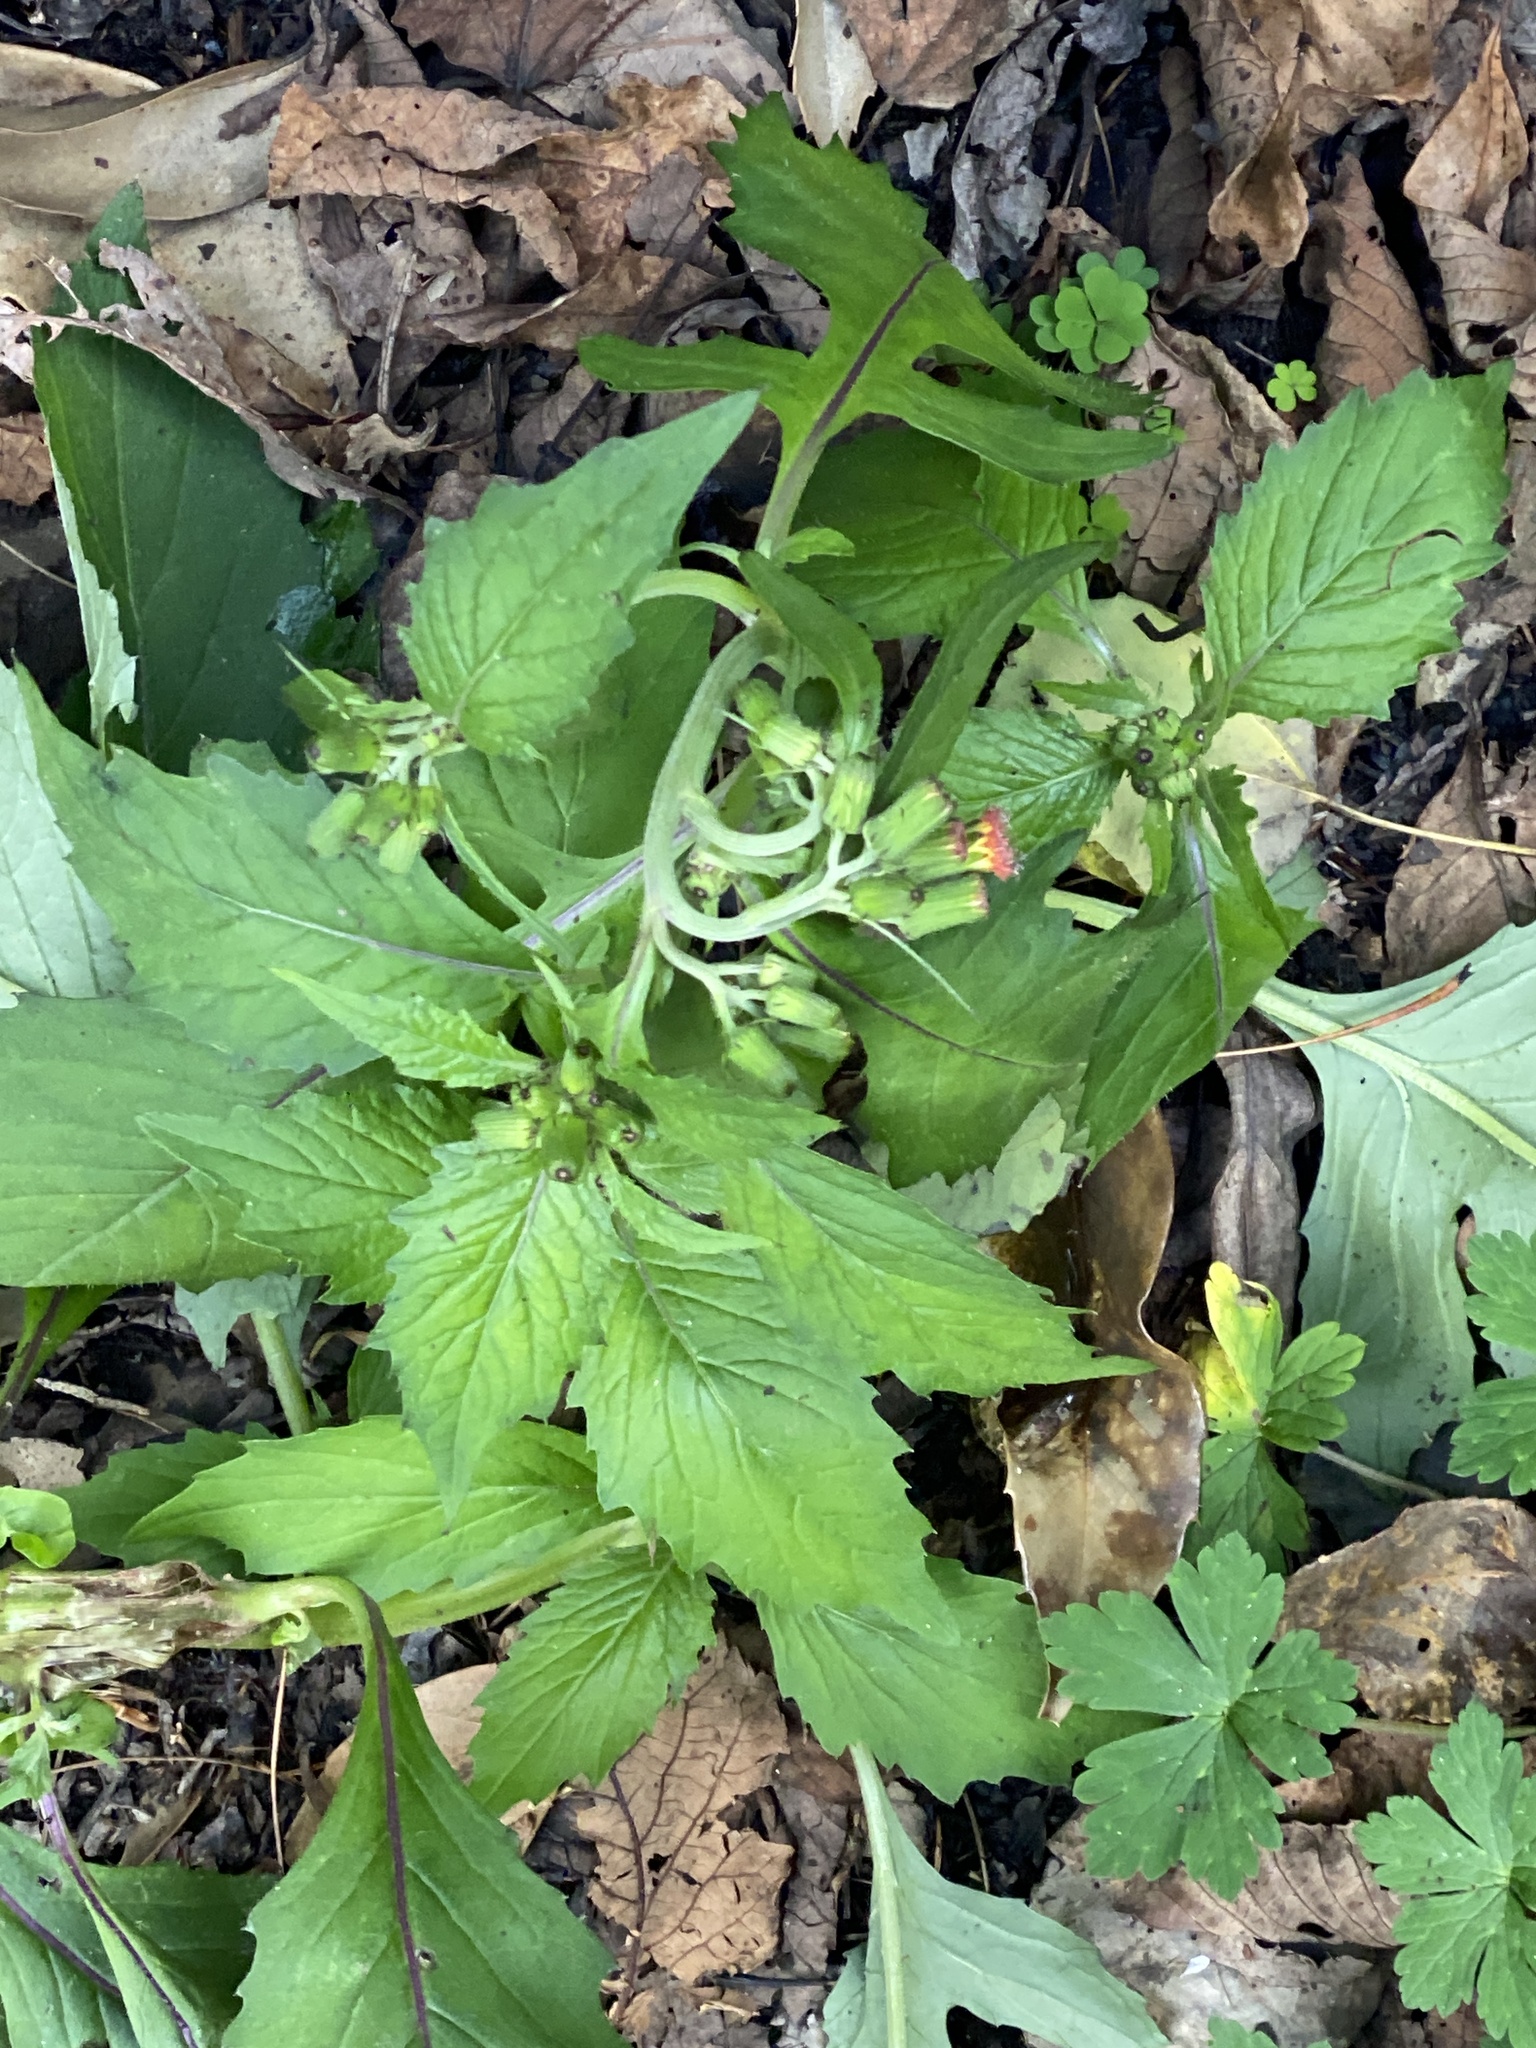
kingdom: Plantae
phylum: Tracheophyta
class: Magnoliopsida
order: Asterales
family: Asteraceae
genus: Crassocephalum
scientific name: Crassocephalum crepidioides
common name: Redflower ragleaf
